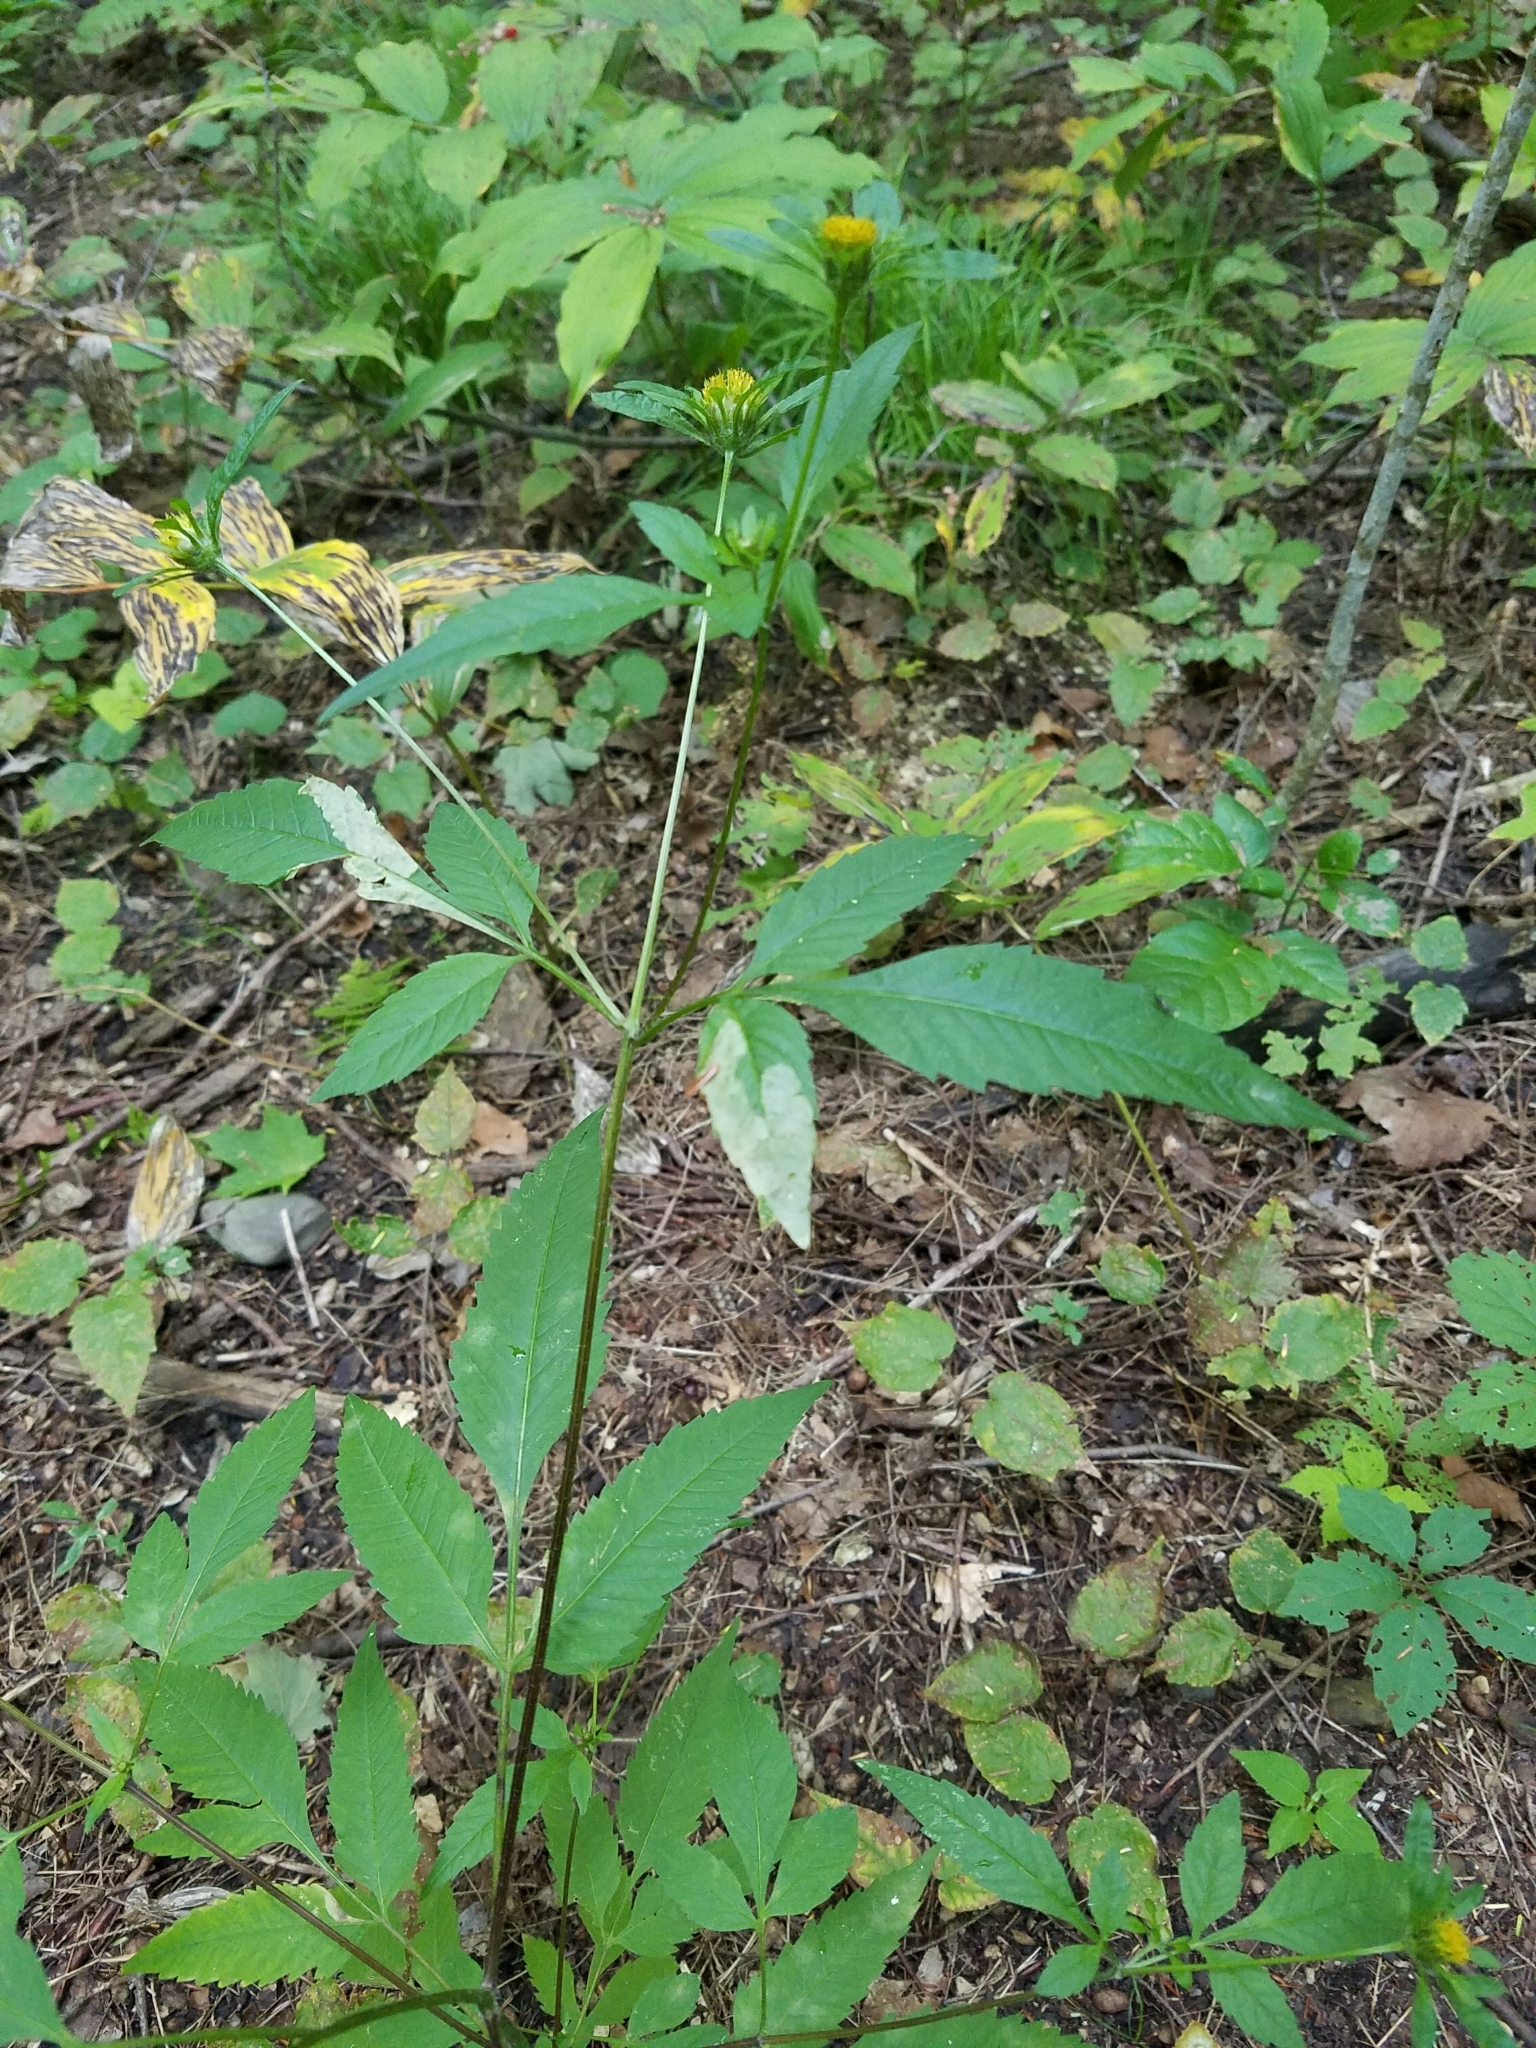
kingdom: Plantae
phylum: Tracheophyta
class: Magnoliopsida
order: Asterales
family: Asteraceae
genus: Bidens
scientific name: Bidens frondosa
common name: Beggarticks
